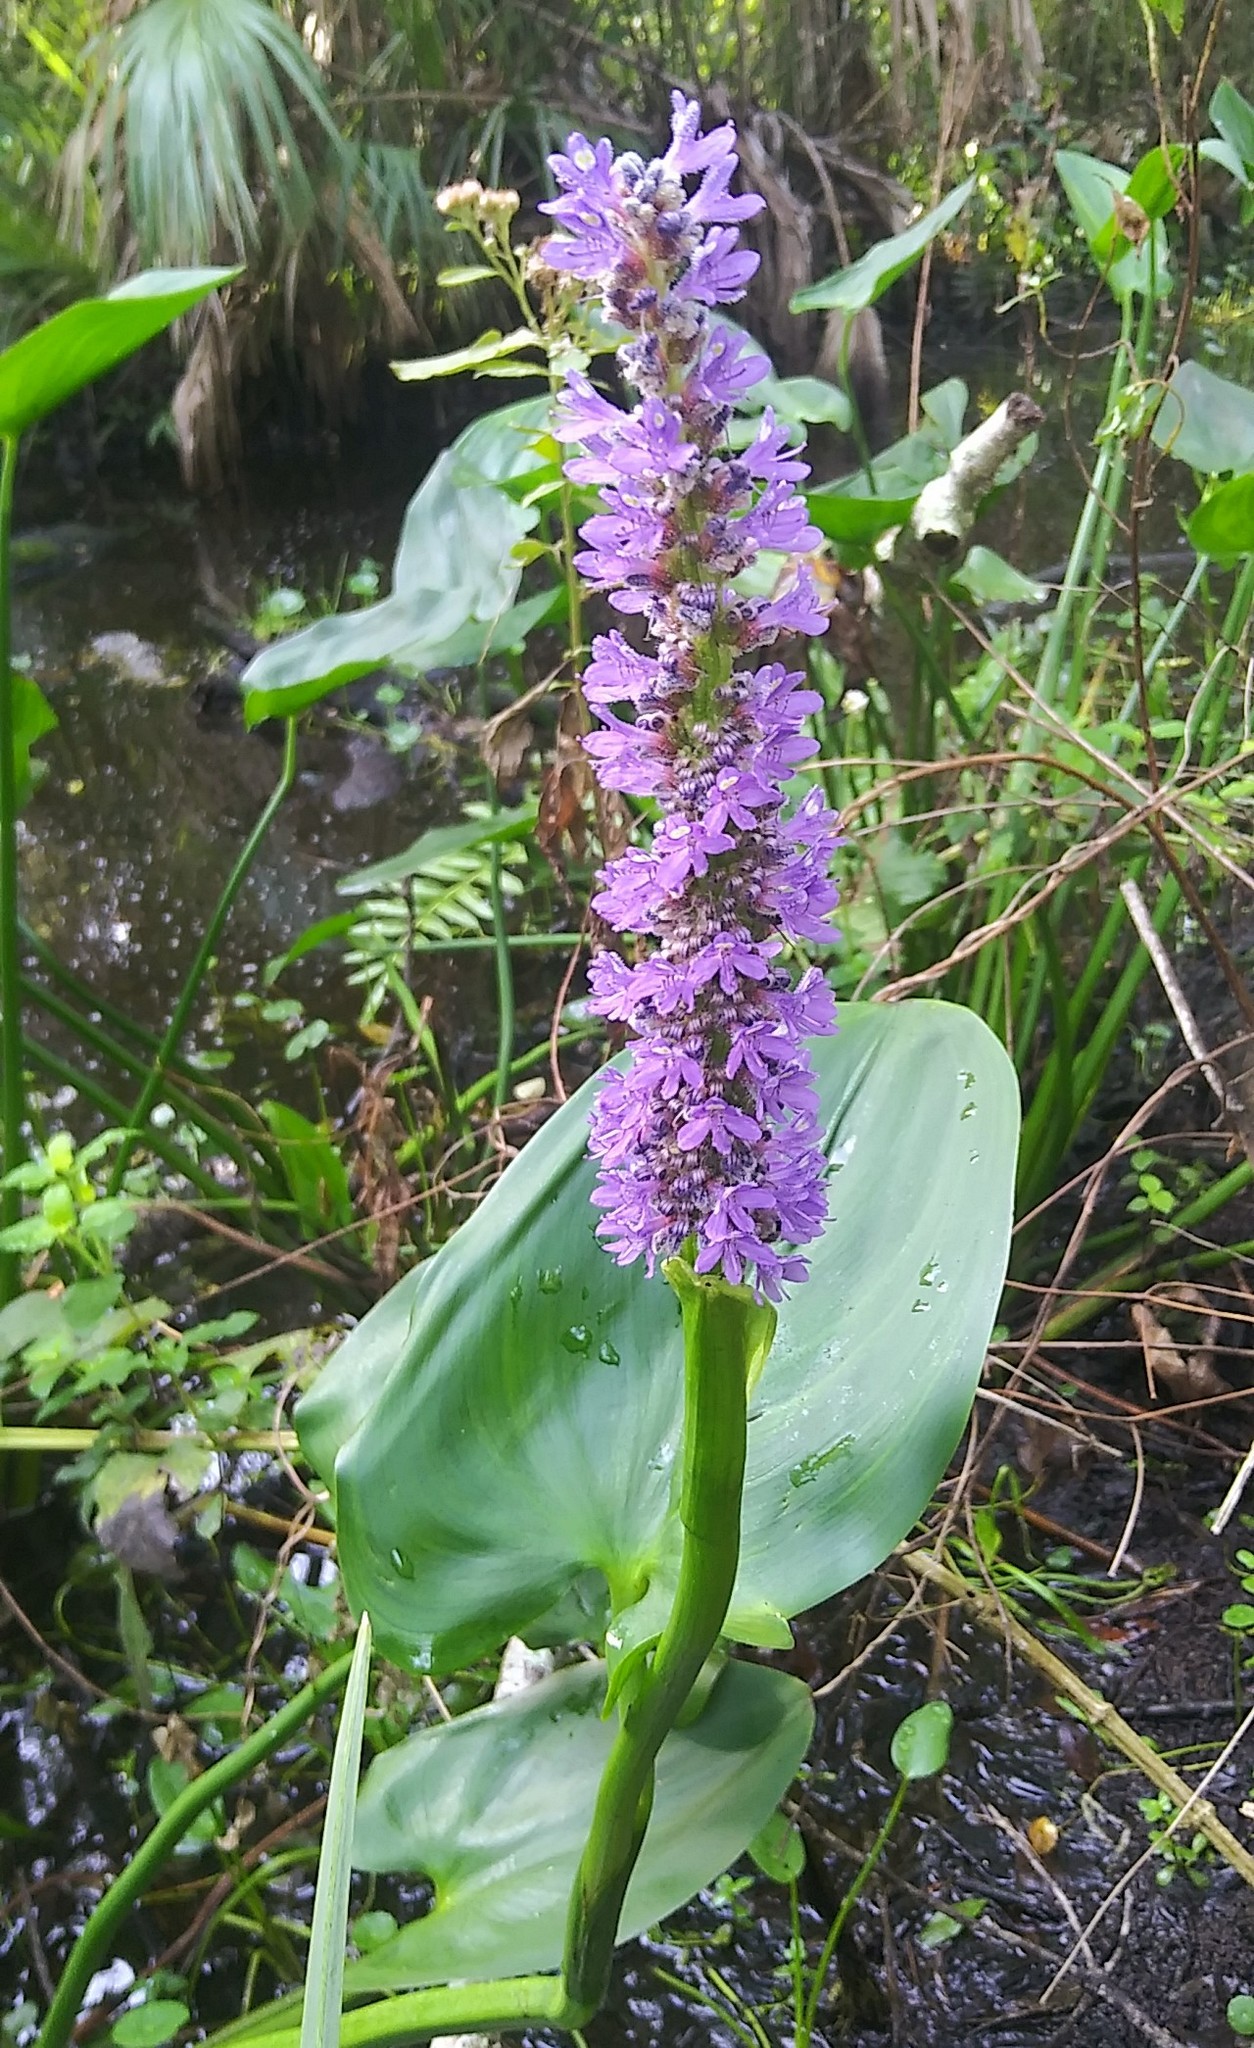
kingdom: Plantae
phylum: Tracheophyta
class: Liliopsida
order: Commelinales
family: Pontederiaceae
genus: Pontederia
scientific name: Pontederia cordata
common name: Pickerelweed
